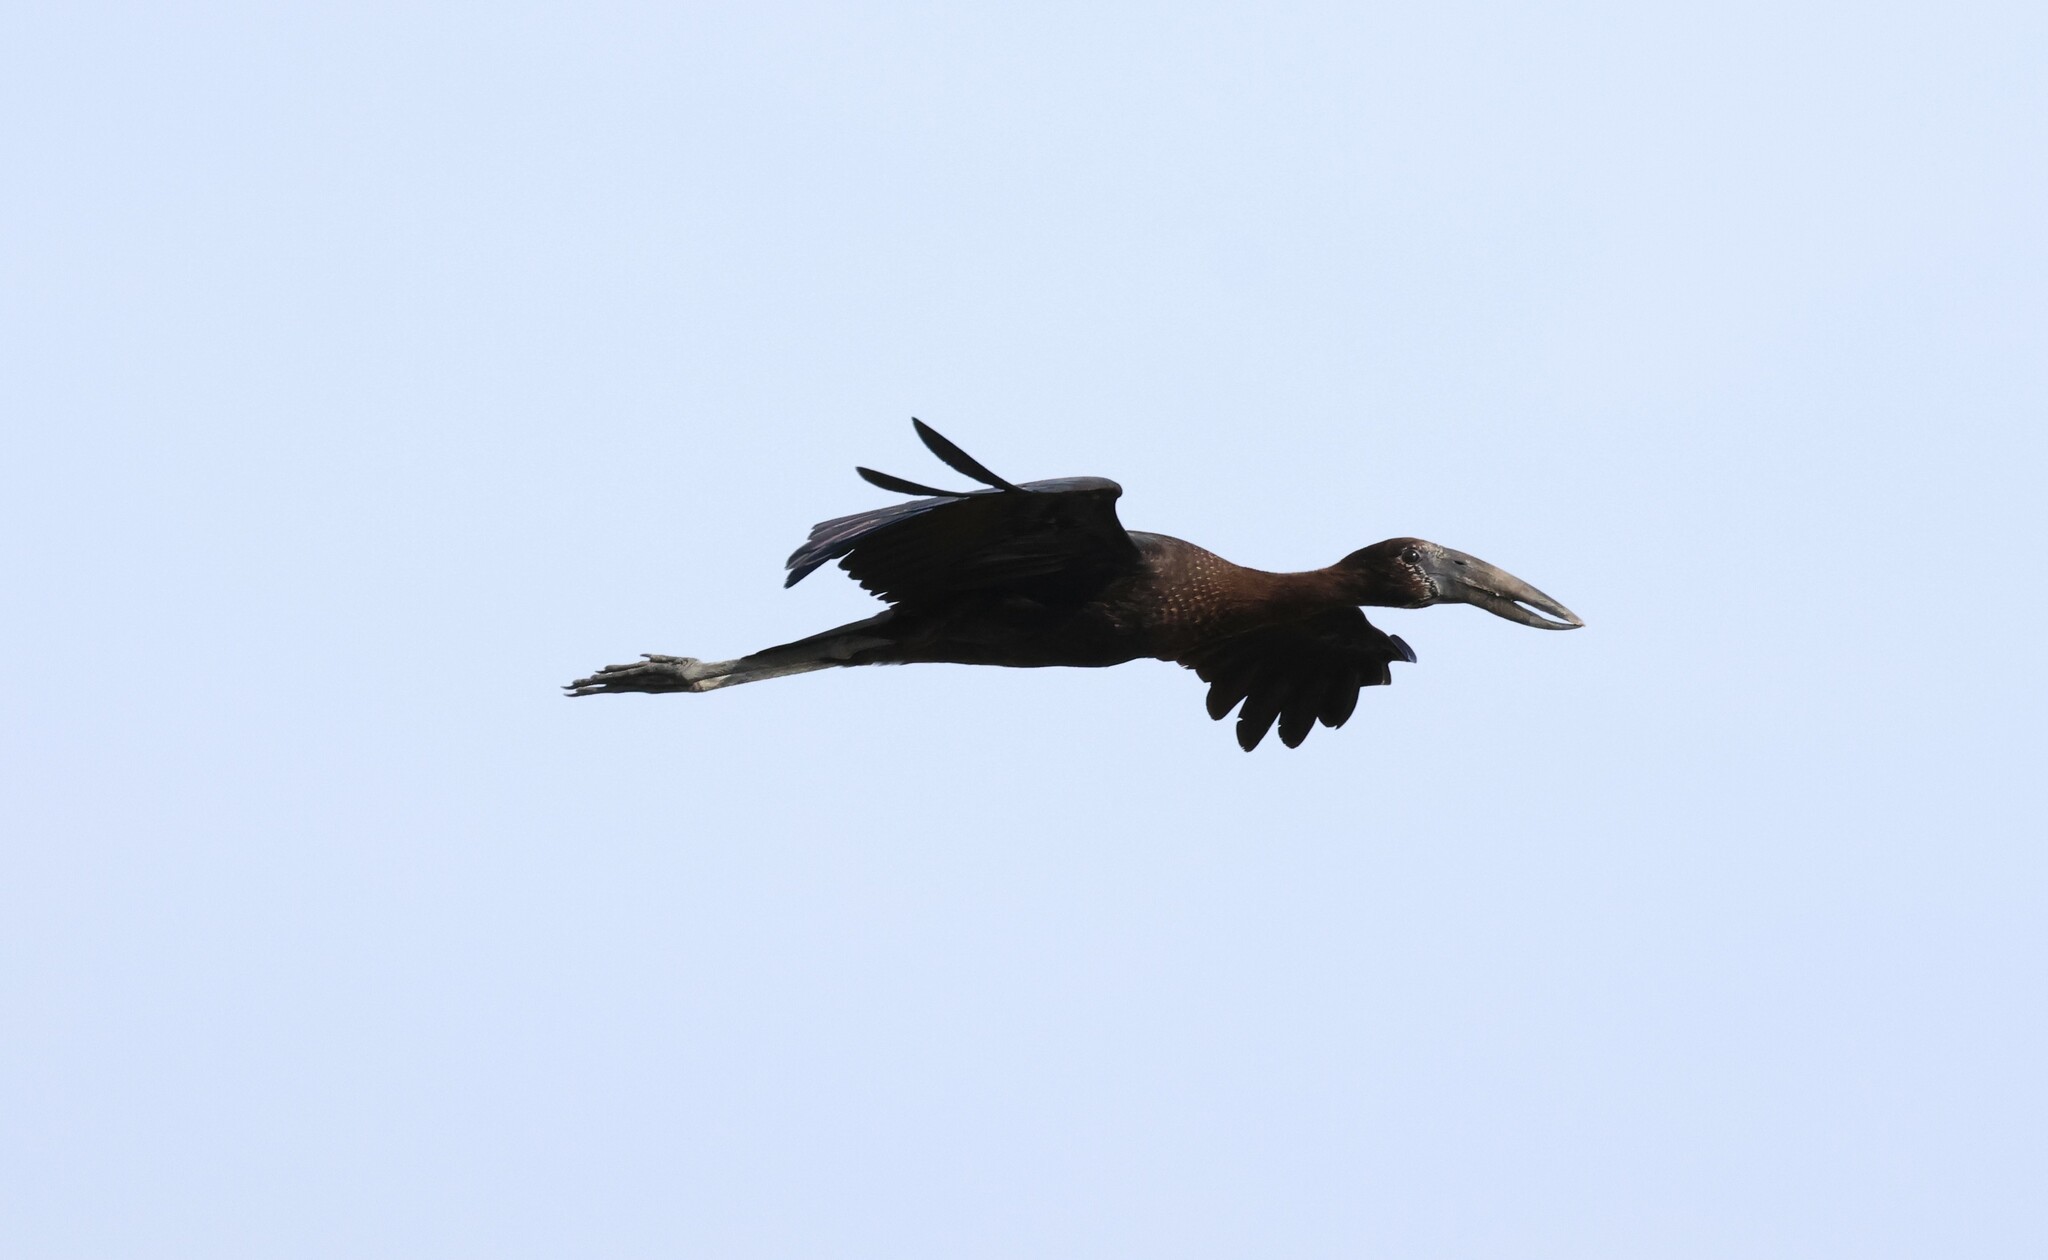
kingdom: Animalia
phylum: Chordata
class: Aves
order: Ciconiiformes
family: Ciconiidae
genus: Anastomus
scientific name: Anastomus lamelligerus
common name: African openbill
